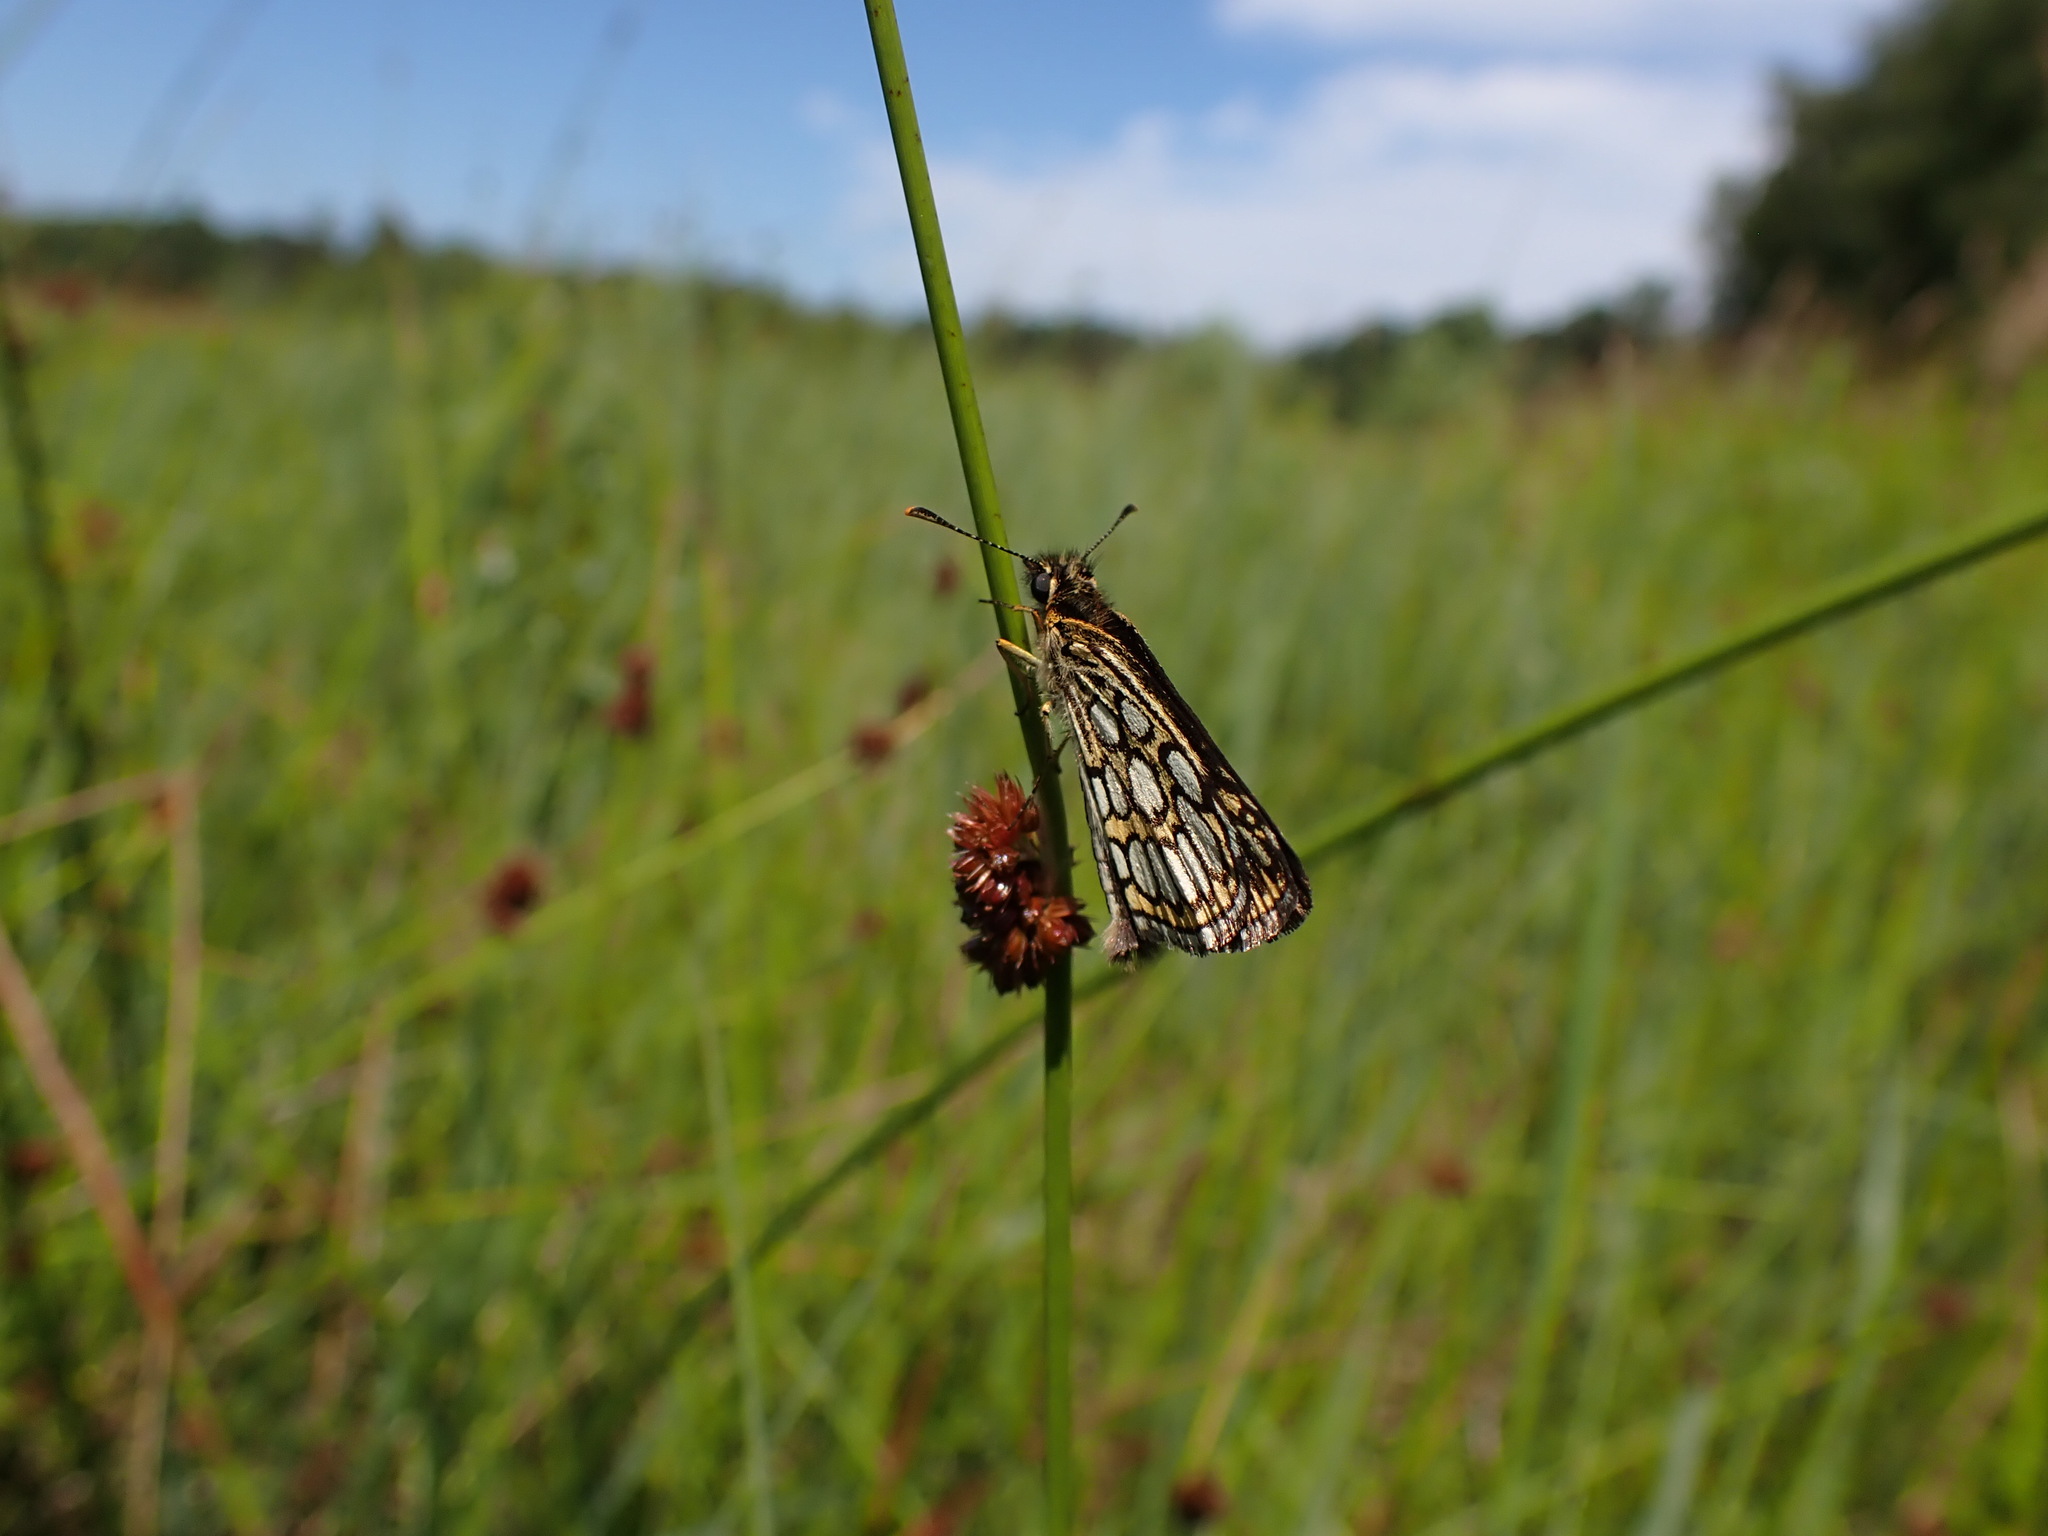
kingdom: Animalia
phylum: Arthropoda
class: Insecta
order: Lepidoptera
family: Hesperiidae
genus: Heteropterus
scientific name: Heteropterus morpheus
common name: Large chequered skipper
